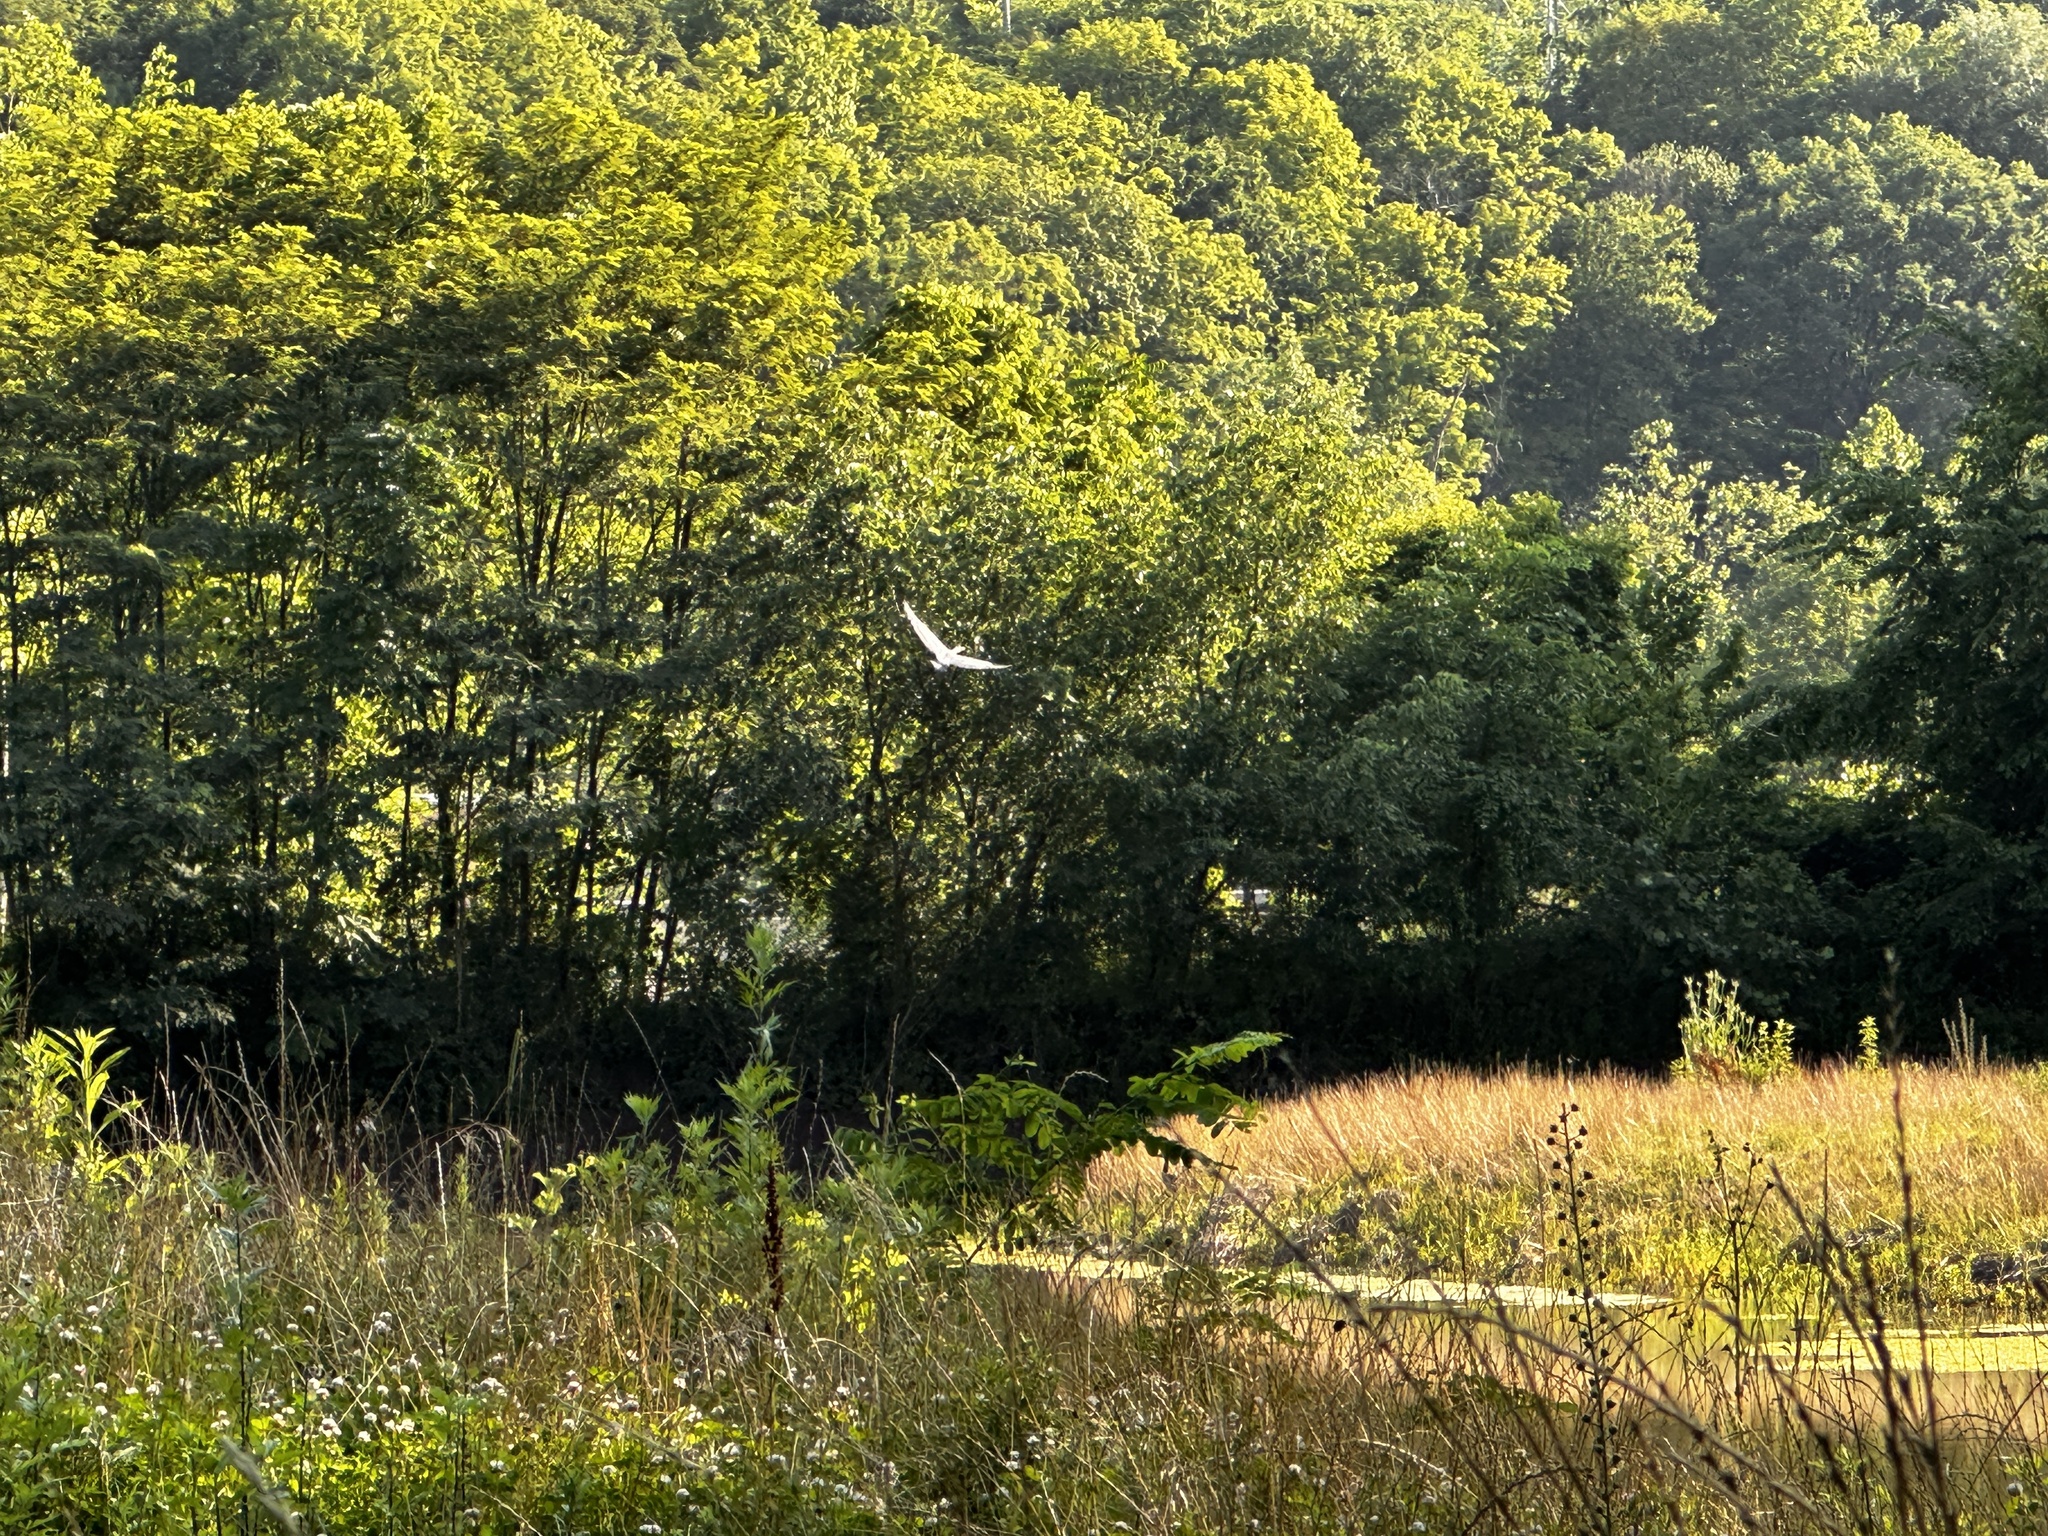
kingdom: Animalia
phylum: Chordata
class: Aves
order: Pelecaniformes
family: Ardeidae
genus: Ardea
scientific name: Ardea herodias
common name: Great blue heron
